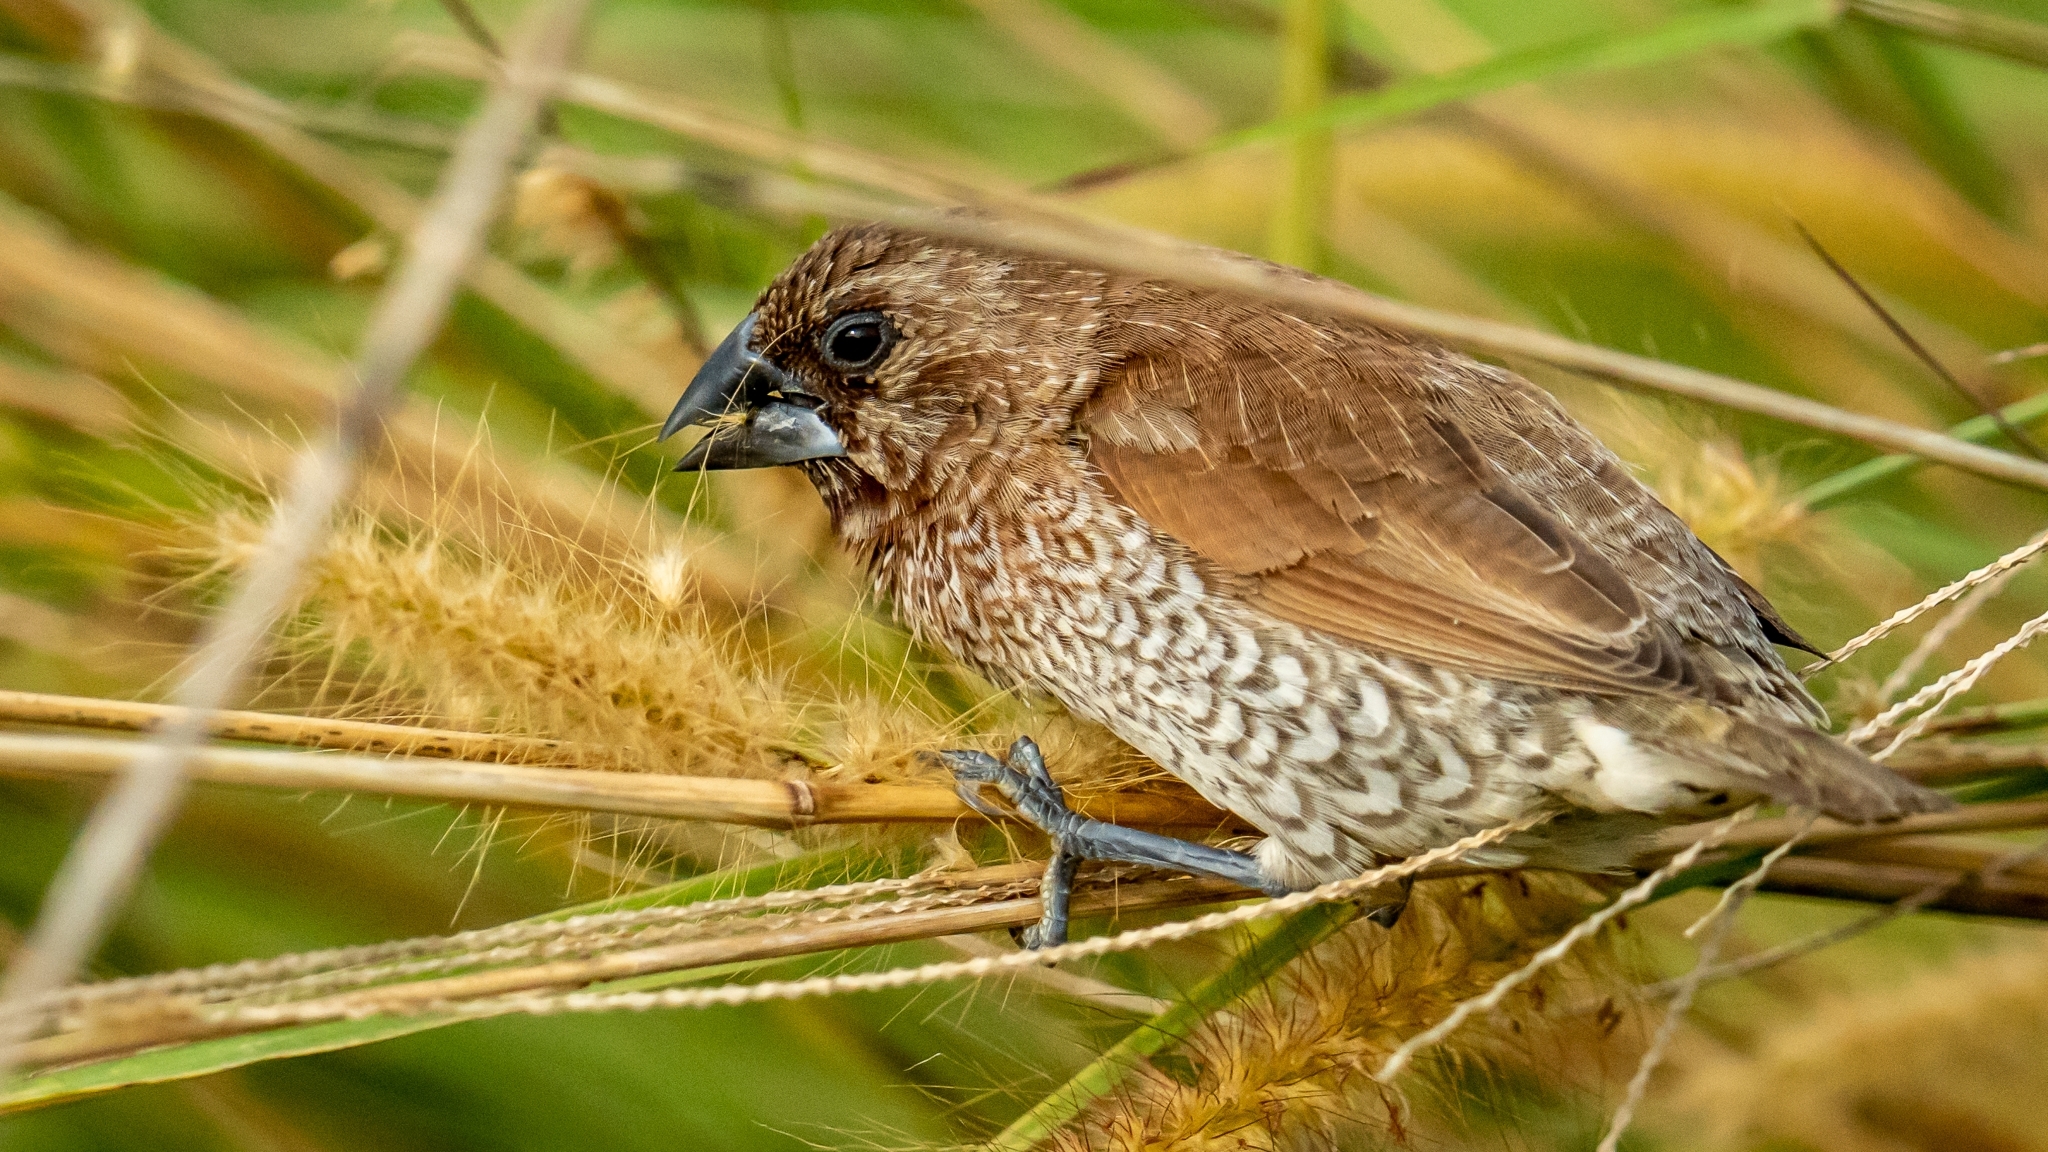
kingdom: Animalia
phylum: Chordata
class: Aves
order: Passeriformes
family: Estrildidae
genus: Lonchura
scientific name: Lonchura punctulata
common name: Scaly-breasted munia
